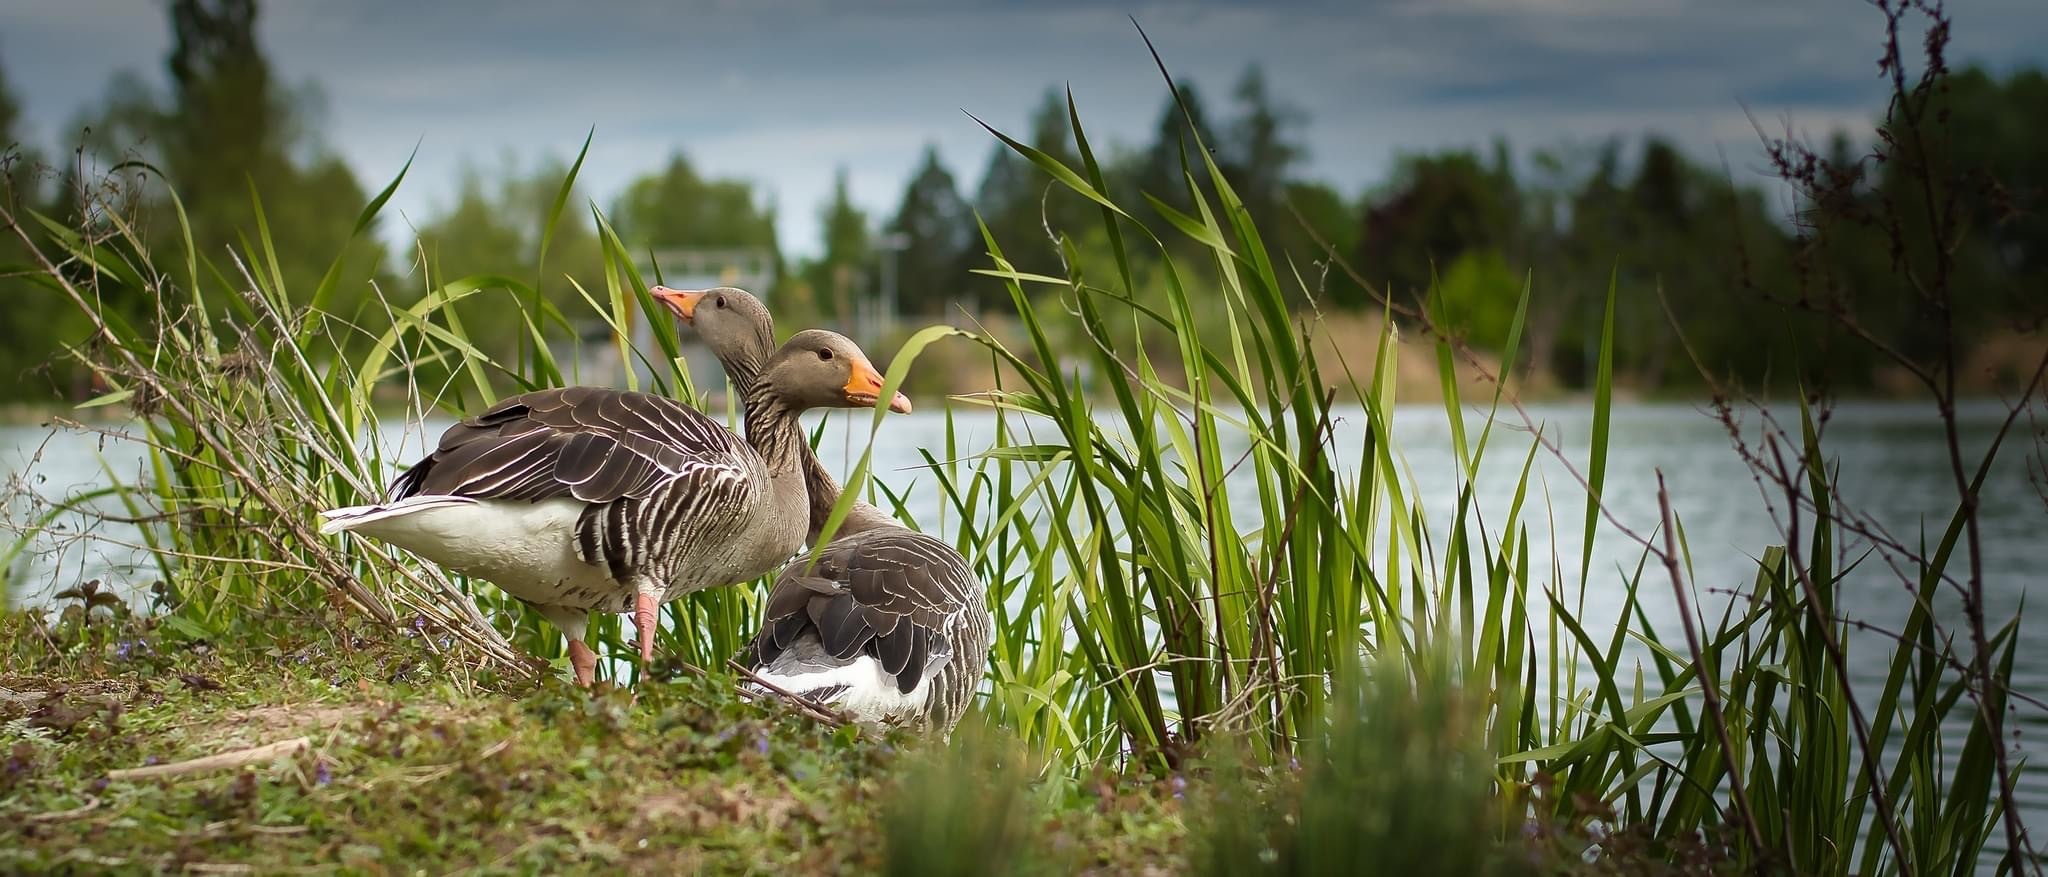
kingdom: Animalia
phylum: Chordata
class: Aves
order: Anseriformes
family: Anatidae
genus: Anser
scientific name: Anser anser
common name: Greylag goose
